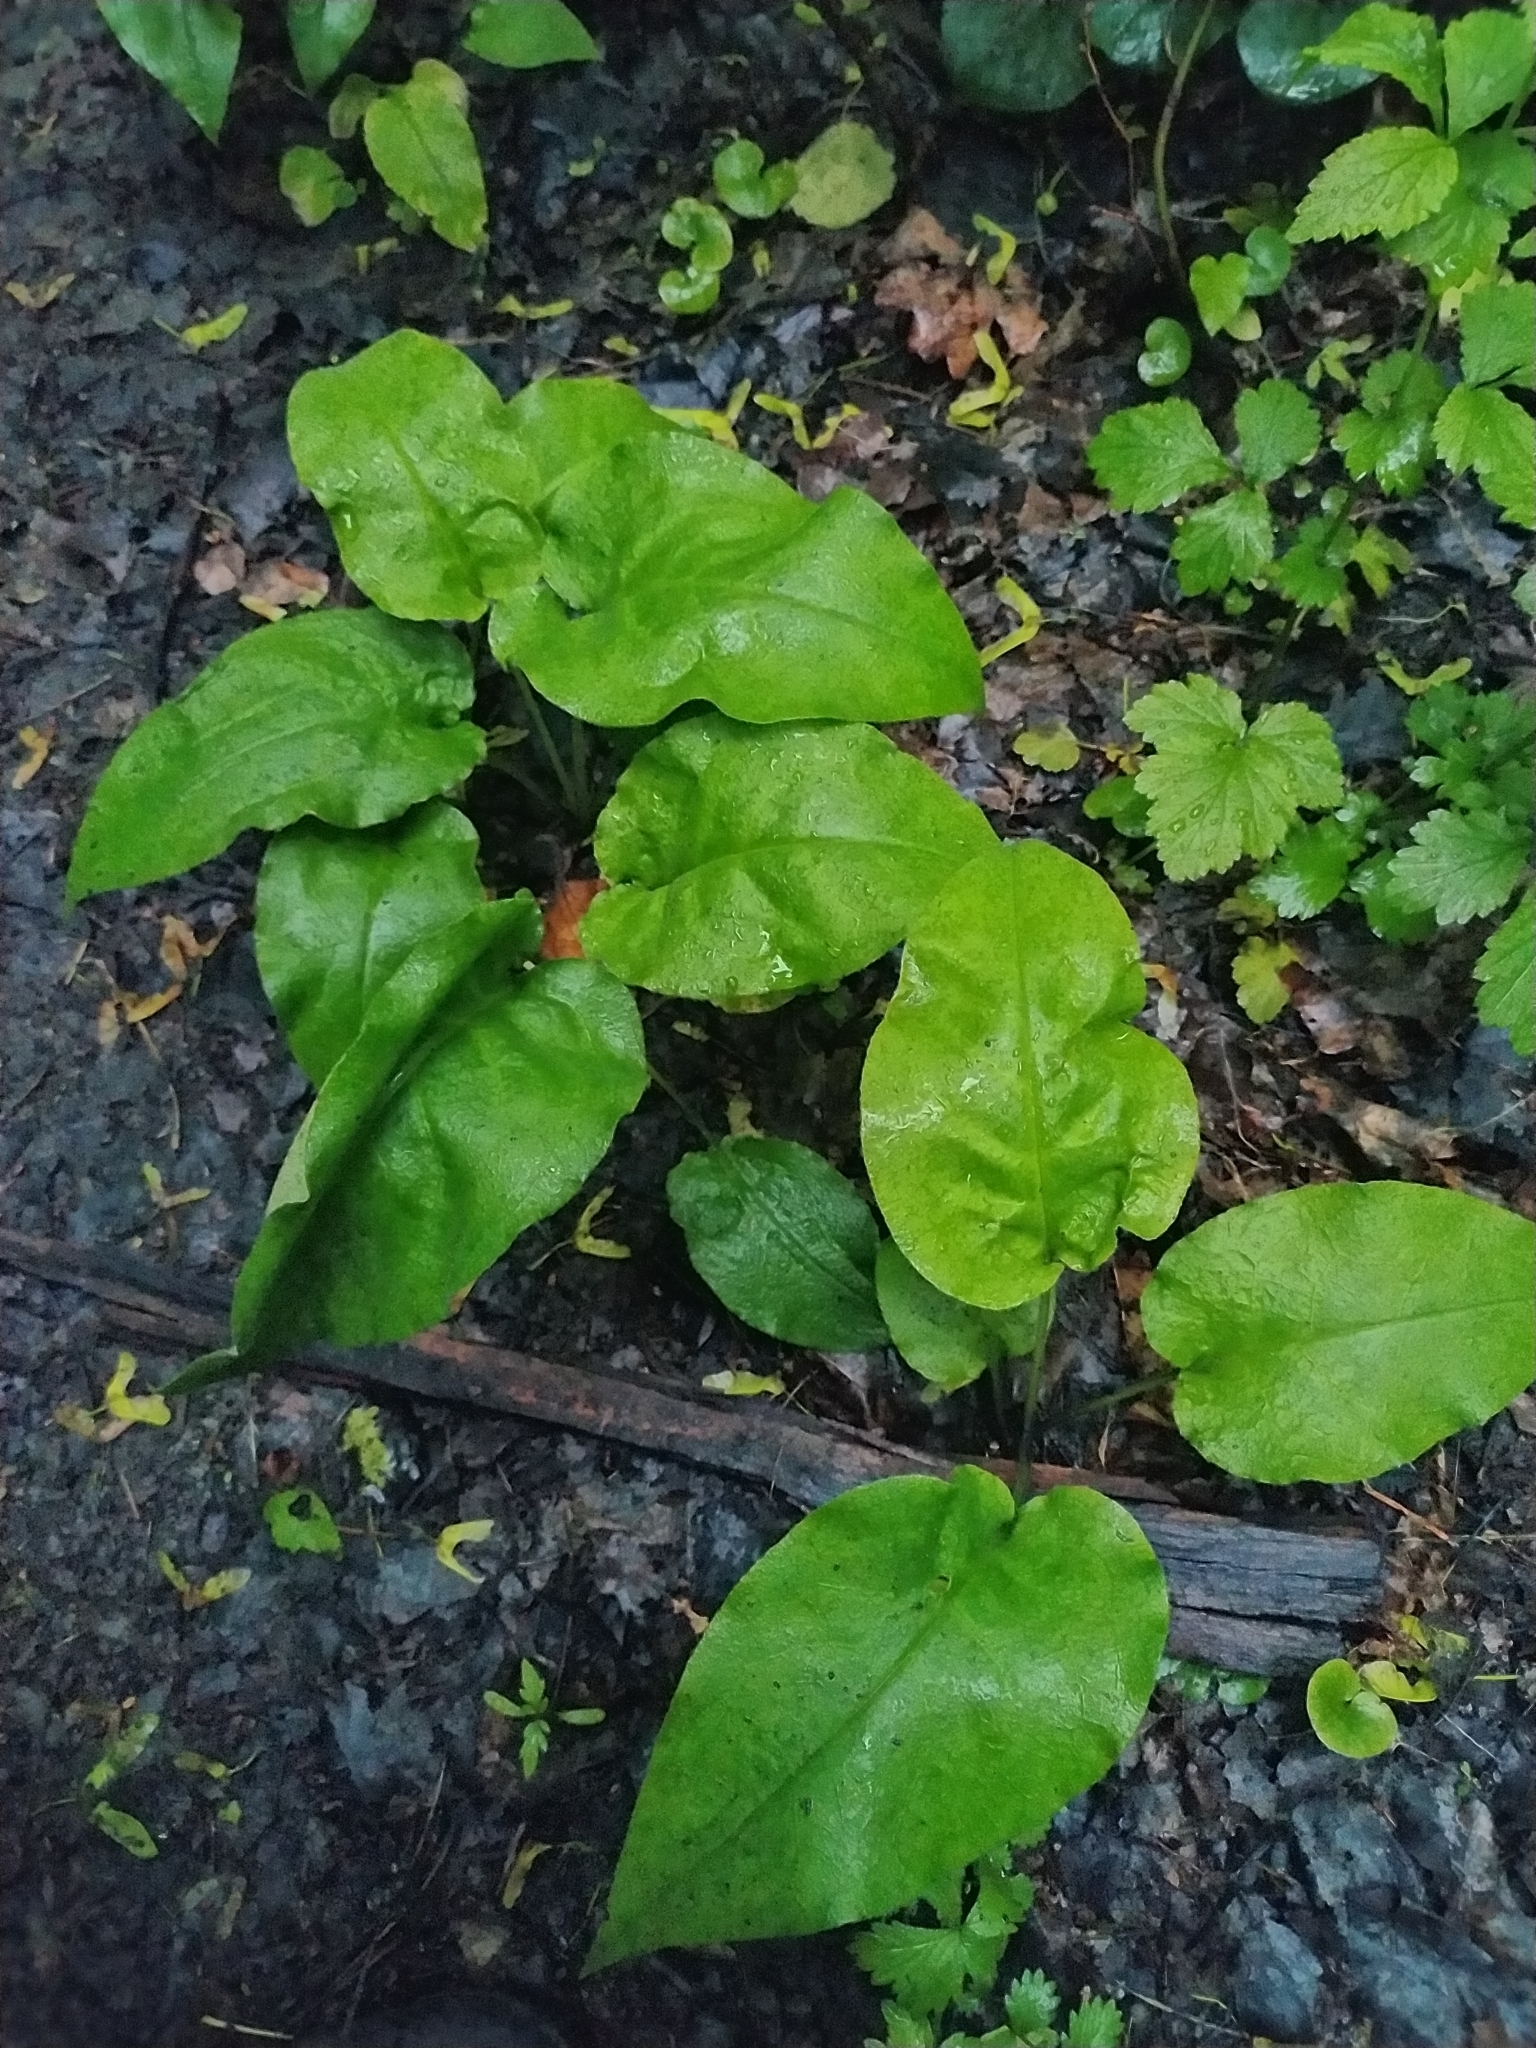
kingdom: Plantae
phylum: Tracheophyta
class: Magnoliopsida
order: Boraginales
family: Boraginaceae
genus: Pulmonaria
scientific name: Pulmonaria obscura
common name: Suffolk lungwort
